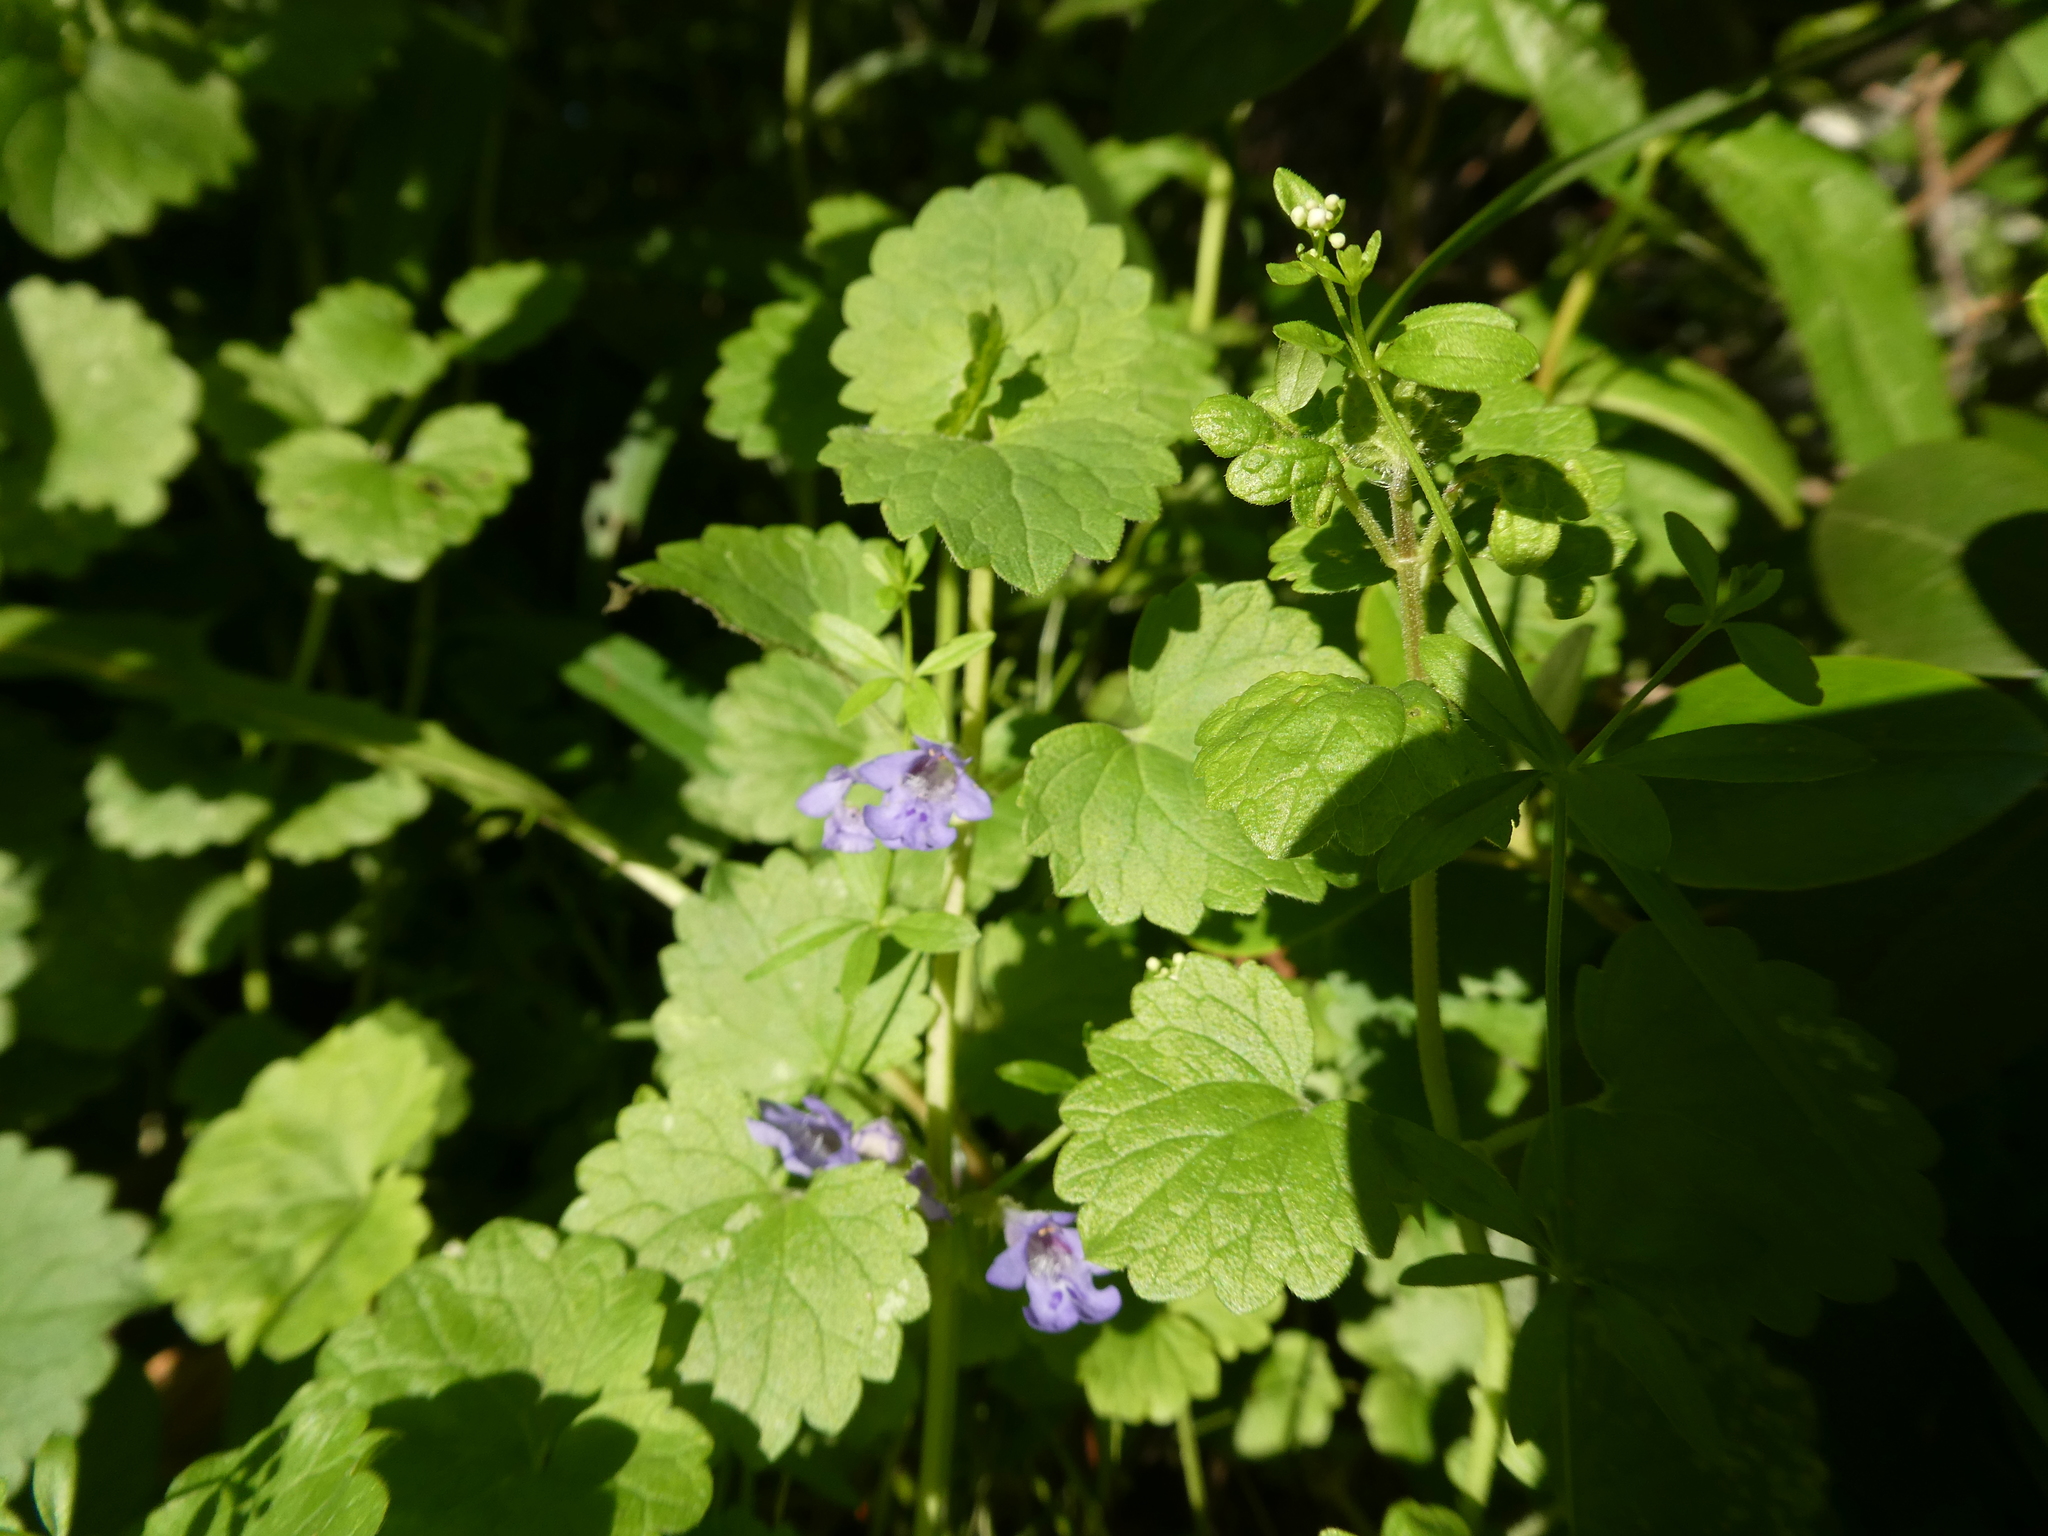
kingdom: Plantae
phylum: Tracheophyta
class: Magnoliopsida
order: Lamiales
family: Lamiaceae
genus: Glechoma
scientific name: Glechoma hederacea
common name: Ground ivy
